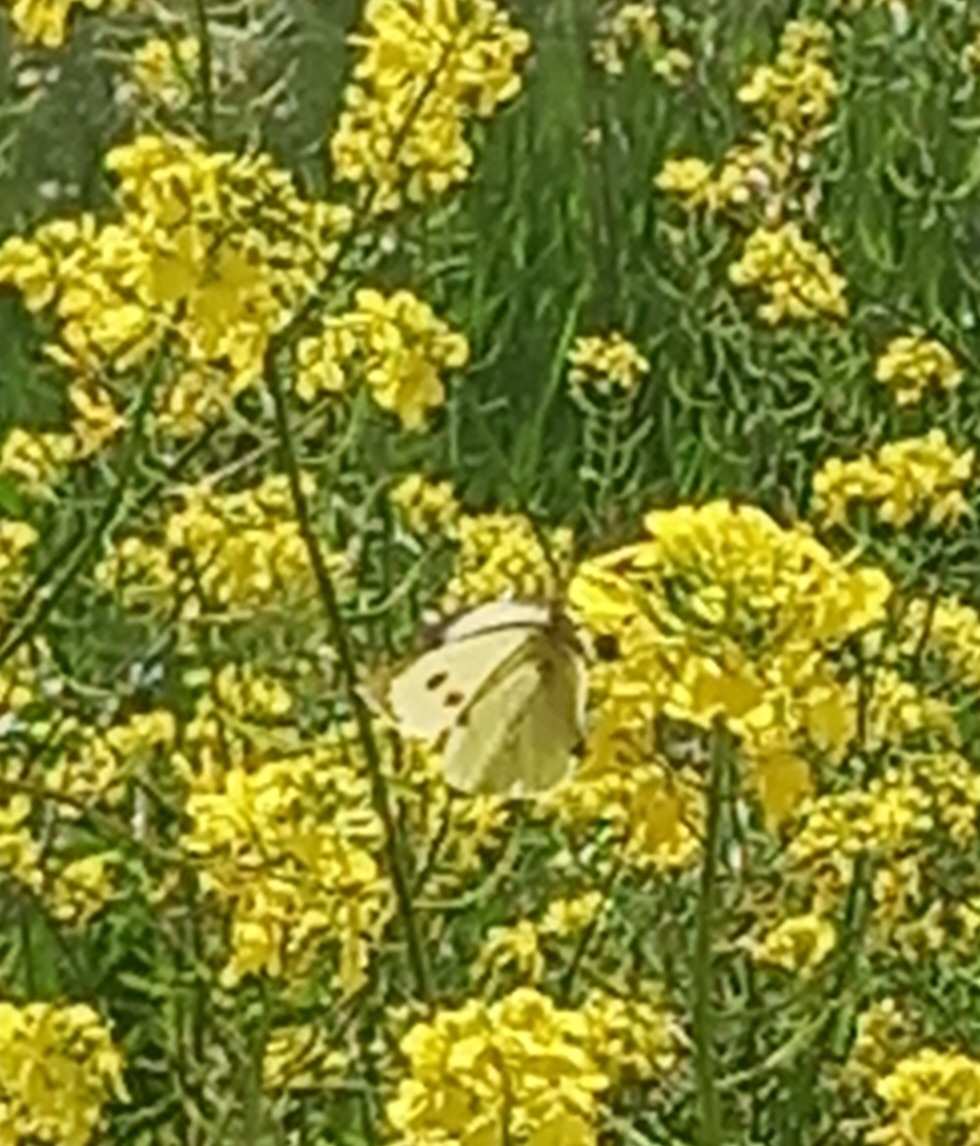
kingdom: Animalia
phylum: Arthropoda
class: Insecta
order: Lepidoptera
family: Pieridae
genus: Pieris
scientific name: Pieris brassicae
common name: Large white
